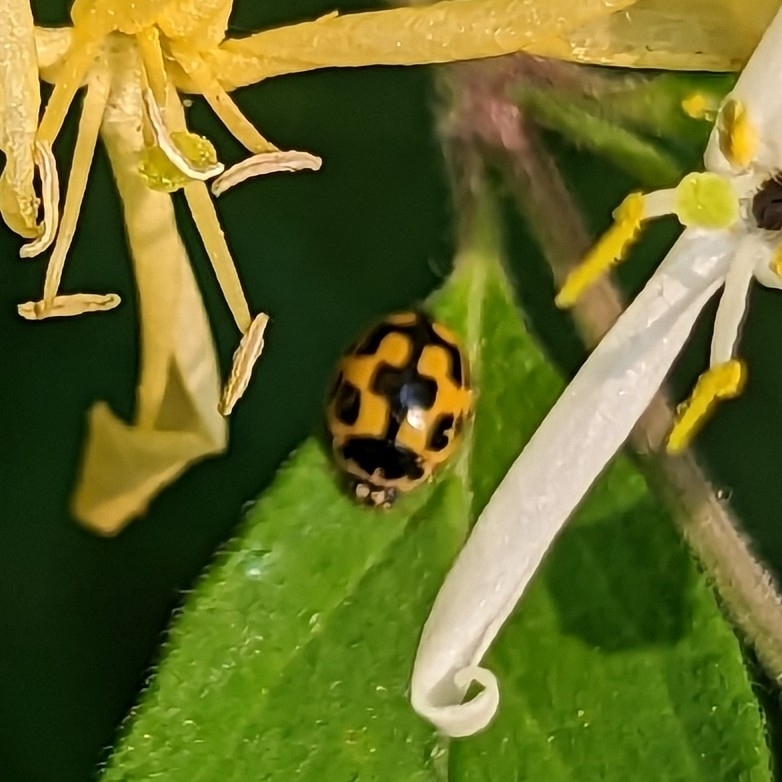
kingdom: Animalia
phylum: Arthropoda
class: Insecta
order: Coleoptera
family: Coccinellidae
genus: Propylaea
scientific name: Propylaea quatuordecimpunctata
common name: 14-spotted ladybird beetle
